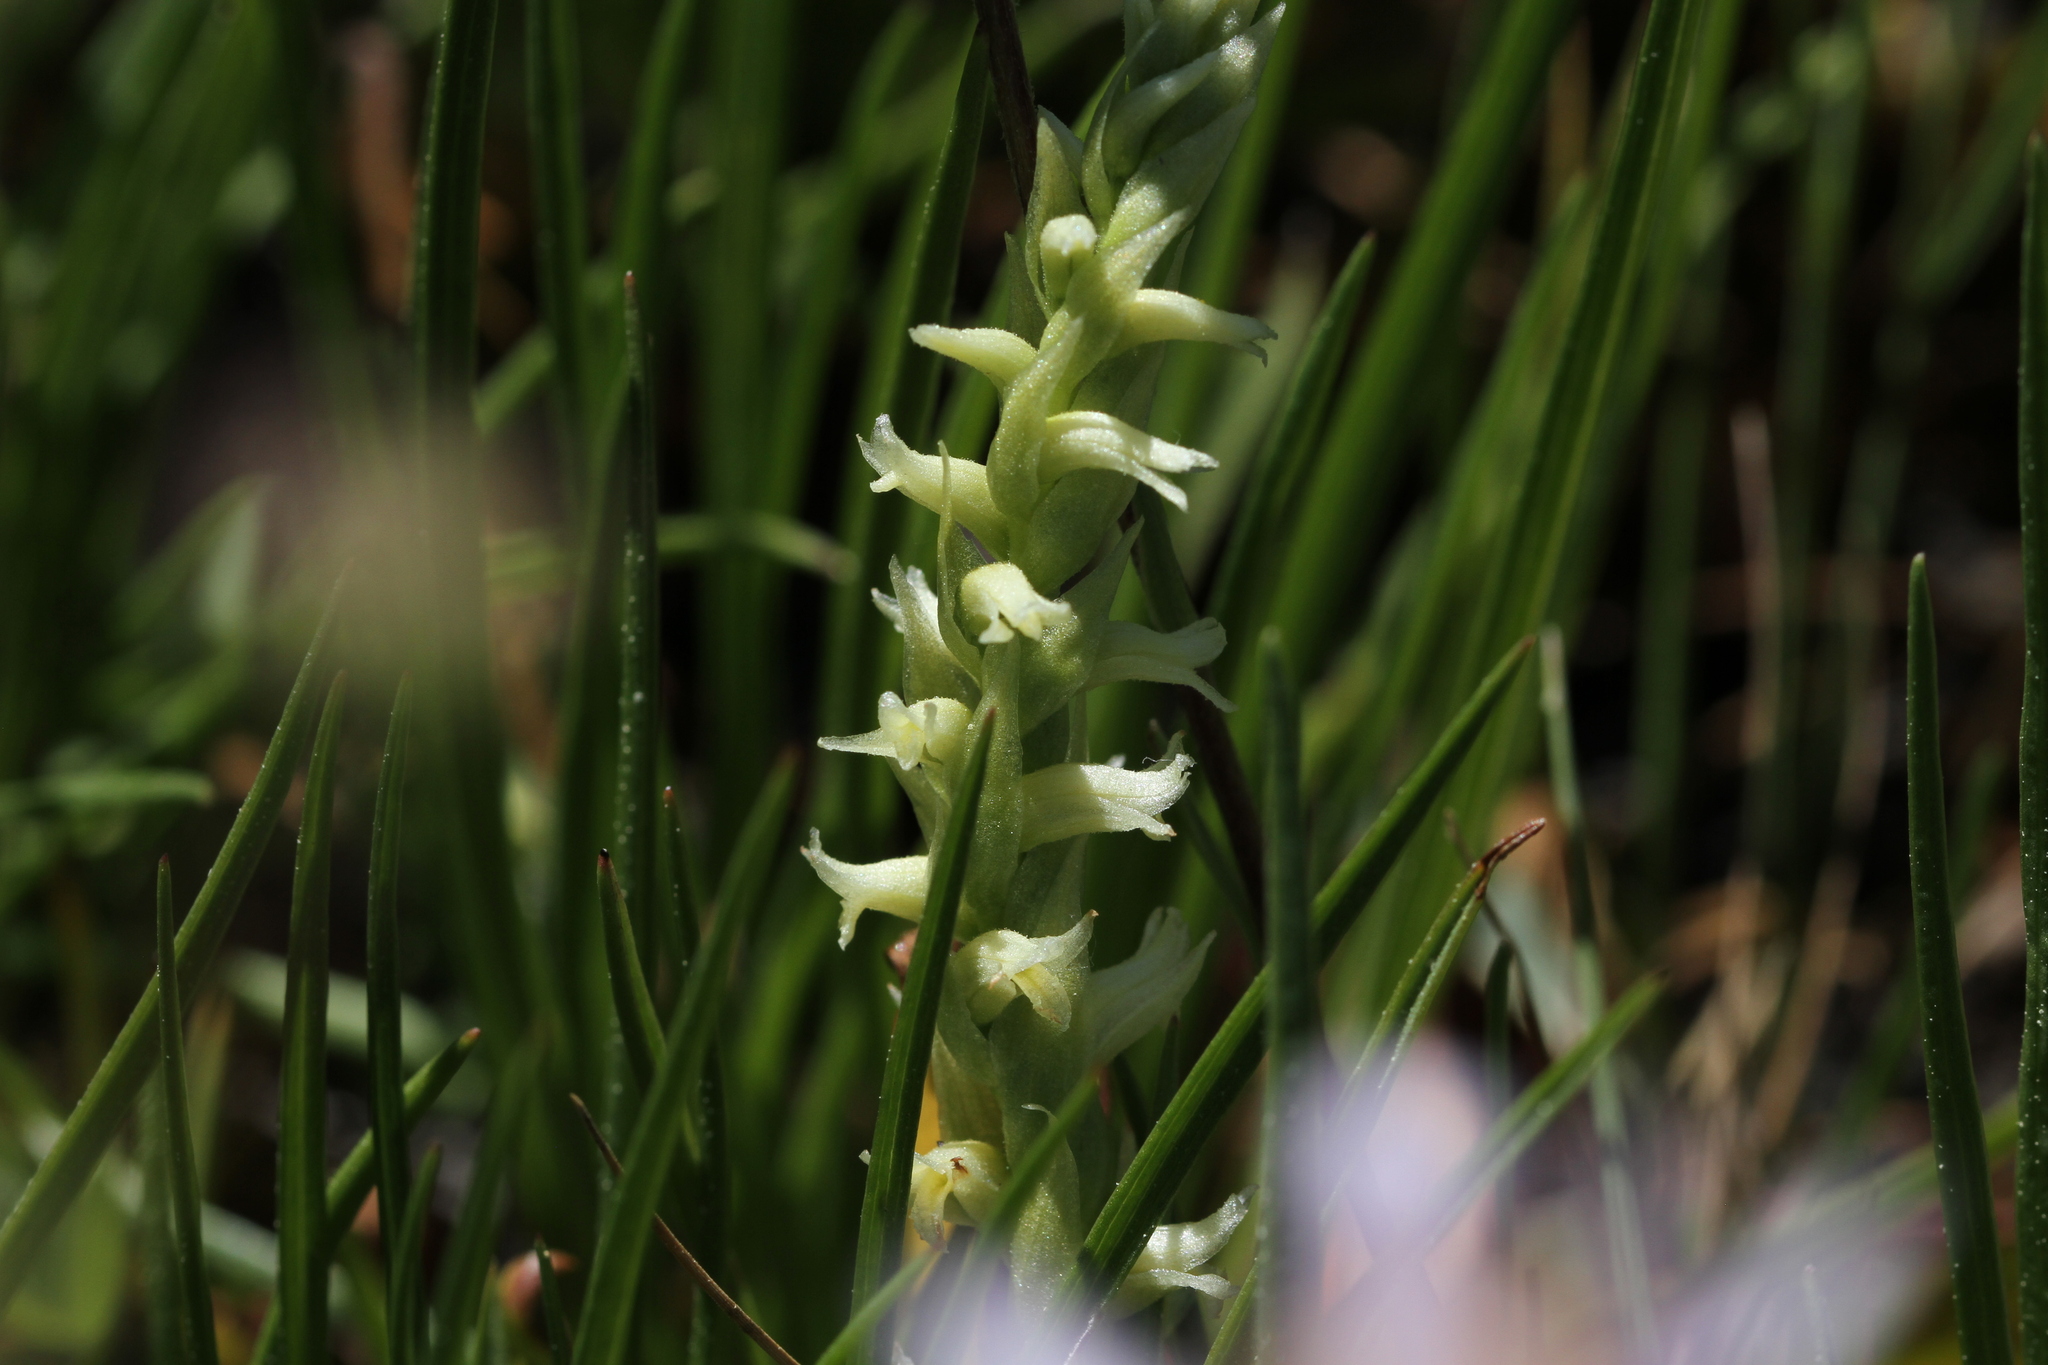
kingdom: Plantae
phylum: Tracheophyta
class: Liliopsida
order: Asparagales
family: Orchidaceae
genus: Spiranthes
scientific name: Spiranthes stellata
